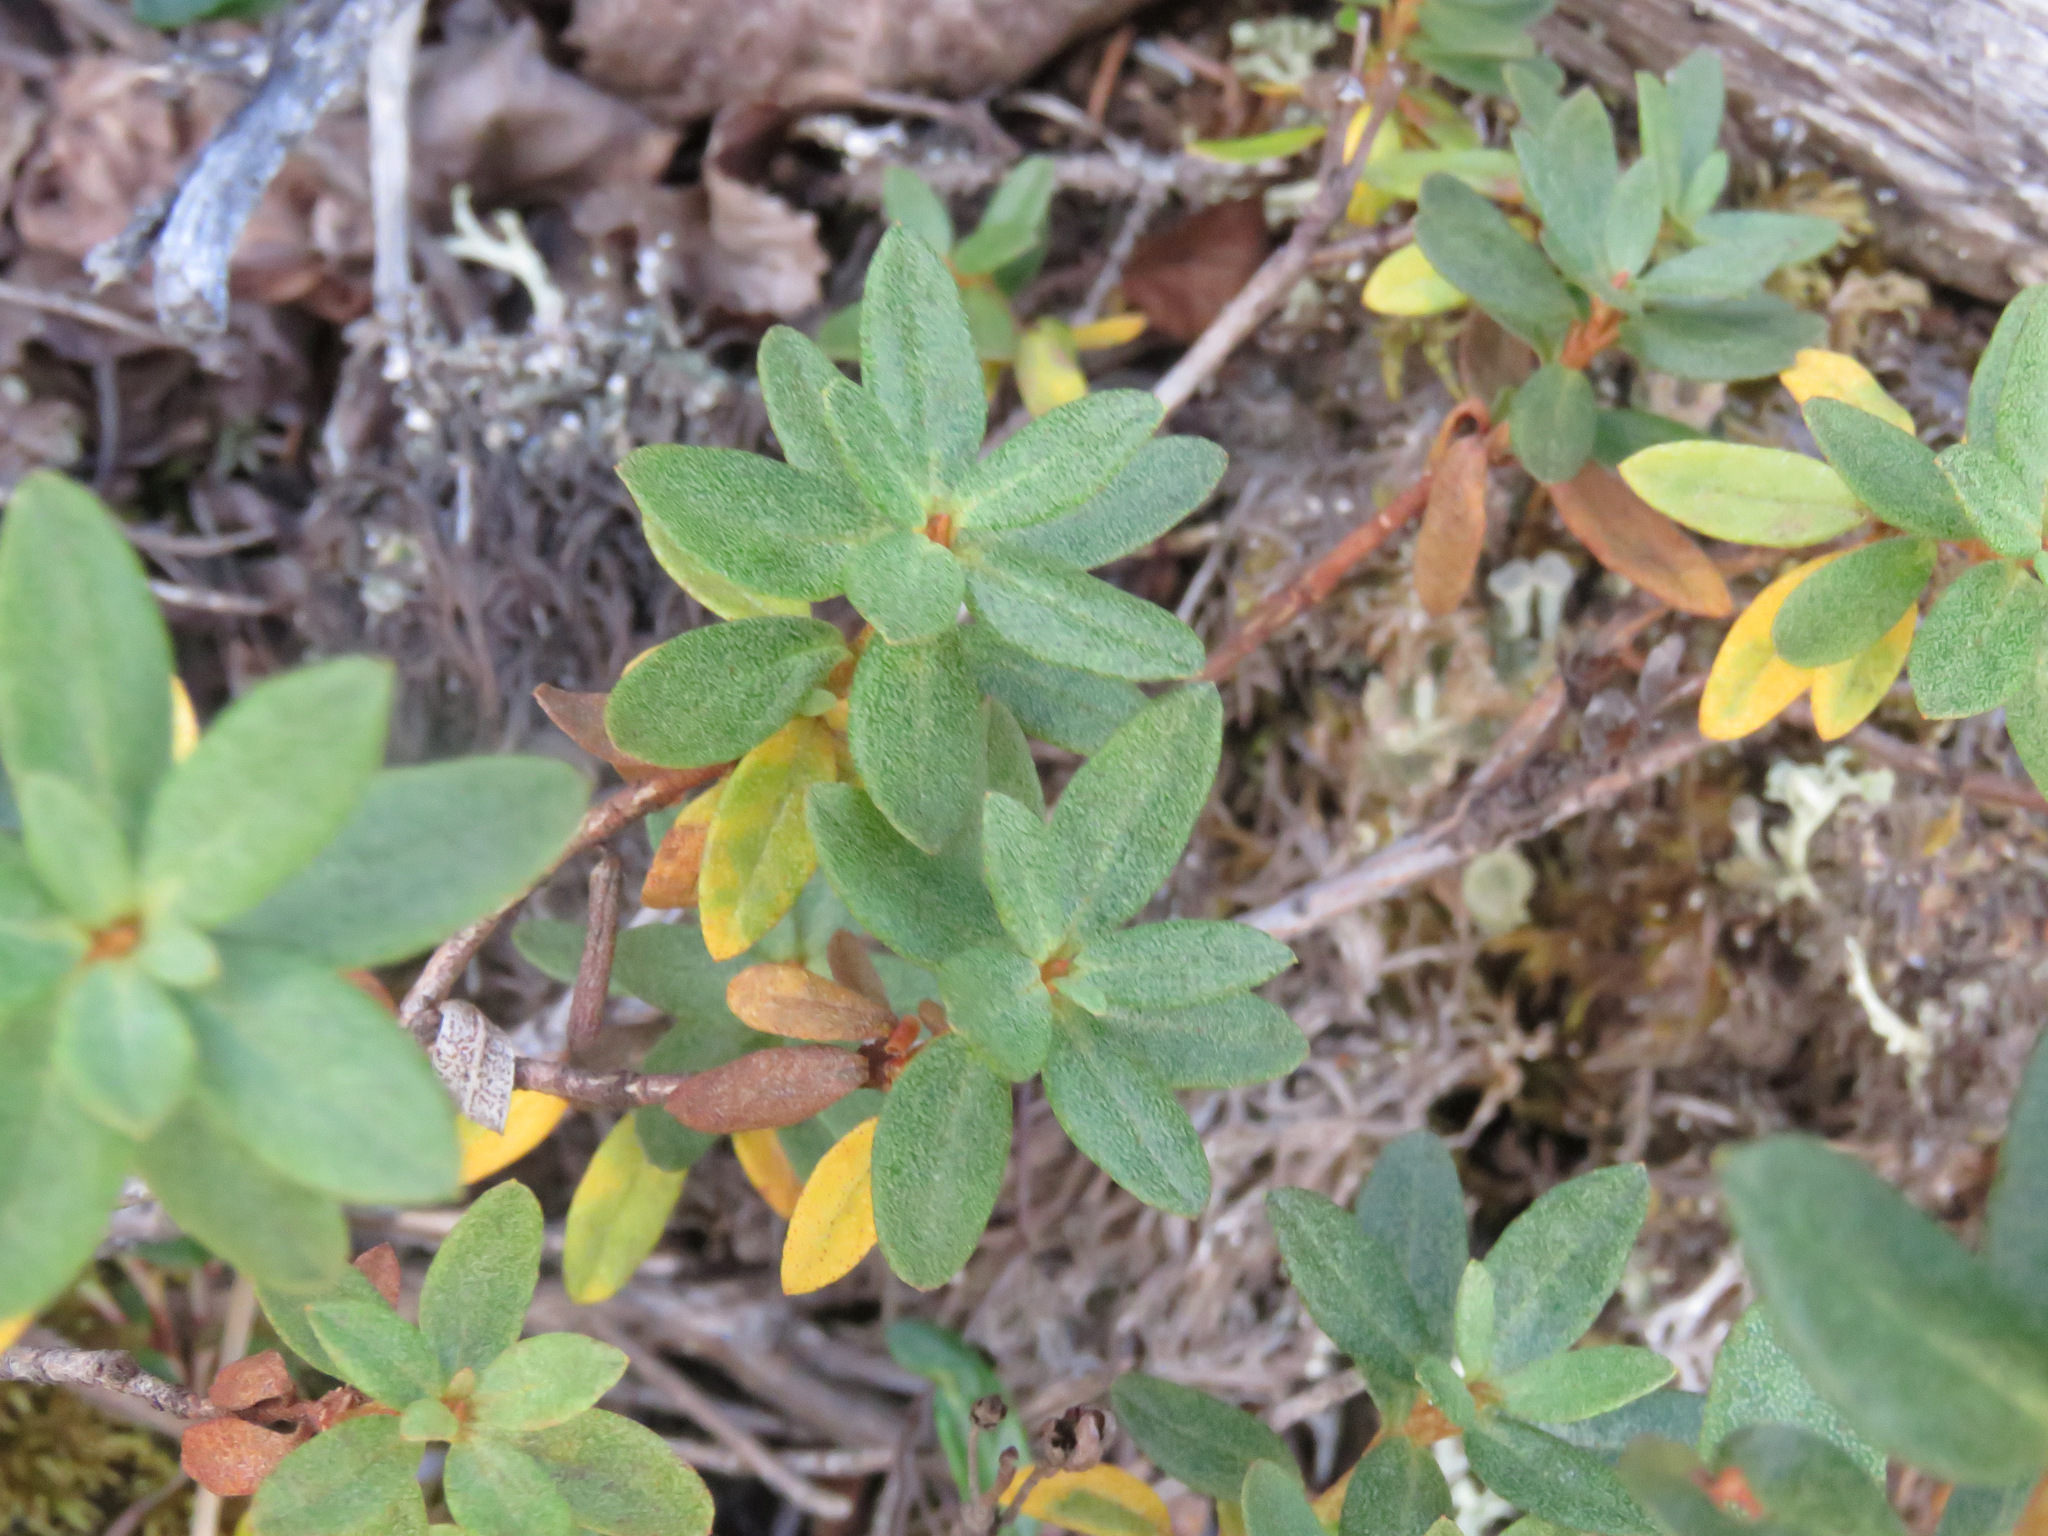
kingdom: Plantae
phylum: Tracheophyta
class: Magnoliopsida
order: Ericales
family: Ericaceae
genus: Rhododendron
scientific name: Rhododendron lapponicum
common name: Lapland rhododendron
